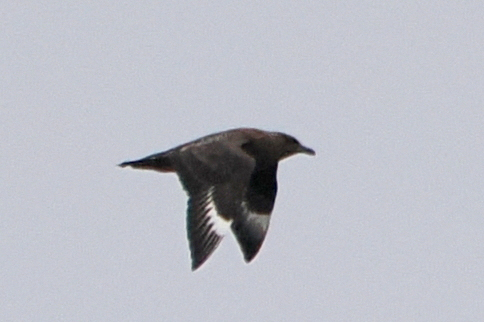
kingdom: Animalia
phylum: Chordata
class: Aves
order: Charadriiformes
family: Stercorariidae
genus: Stercorarius
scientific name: Stercorarius skua
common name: Great skua
